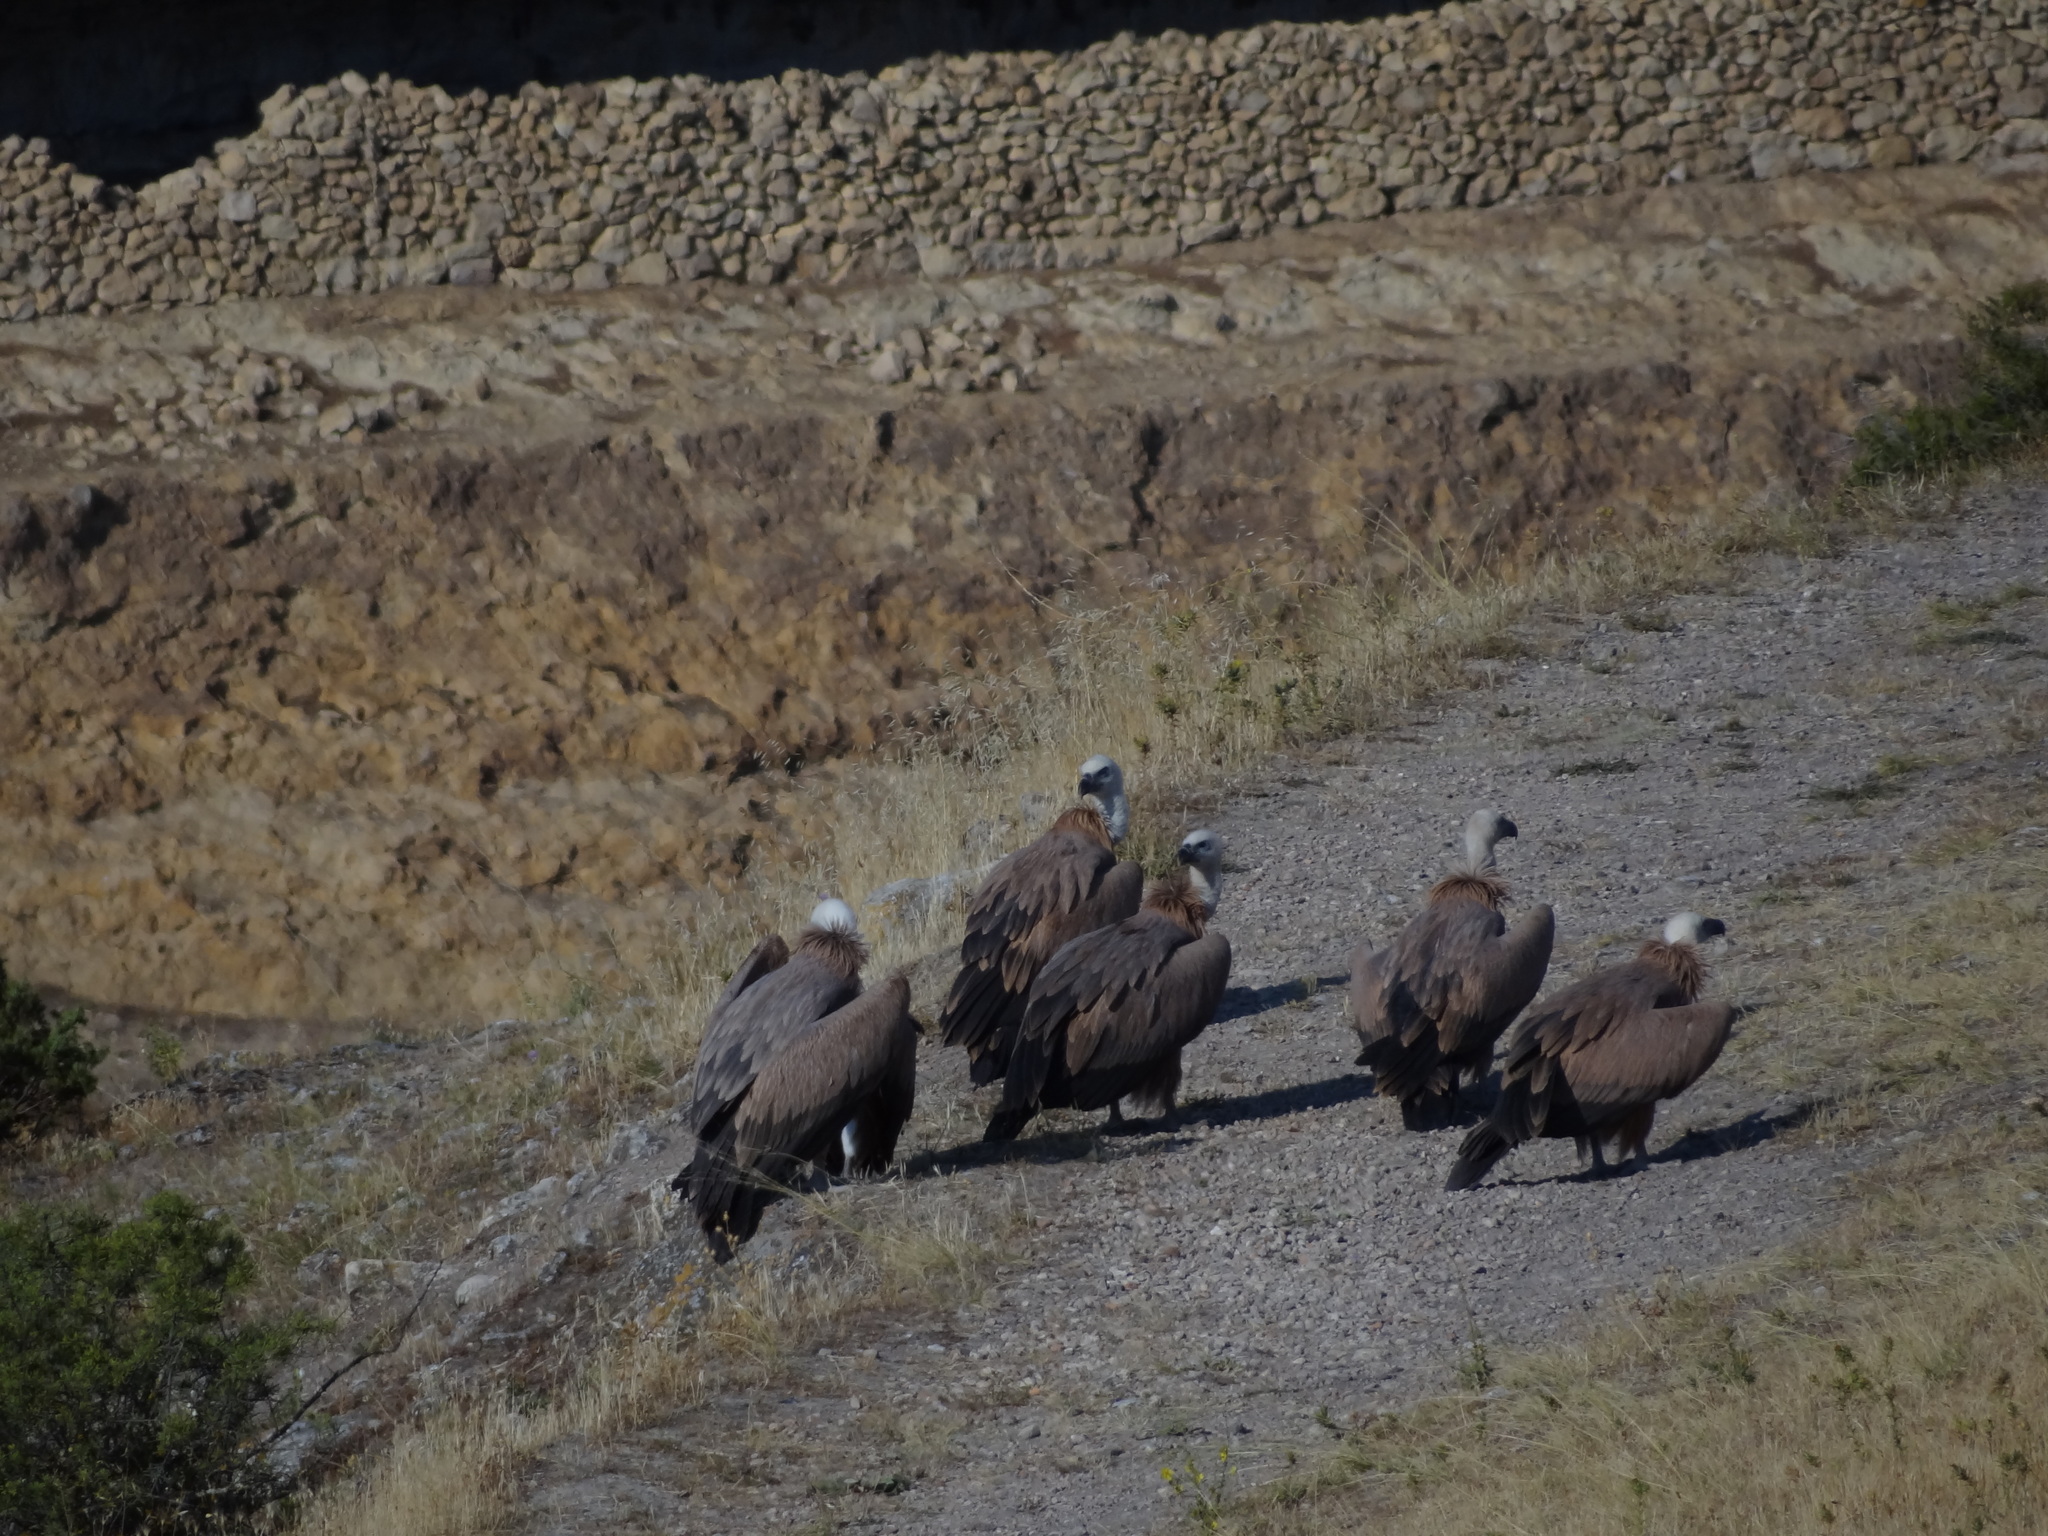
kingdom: Animalia
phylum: Chordata
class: Aves
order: Accipitriformes
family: Accipitridae
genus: Gyps
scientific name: Gyps fulvus
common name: Griffon vulture
